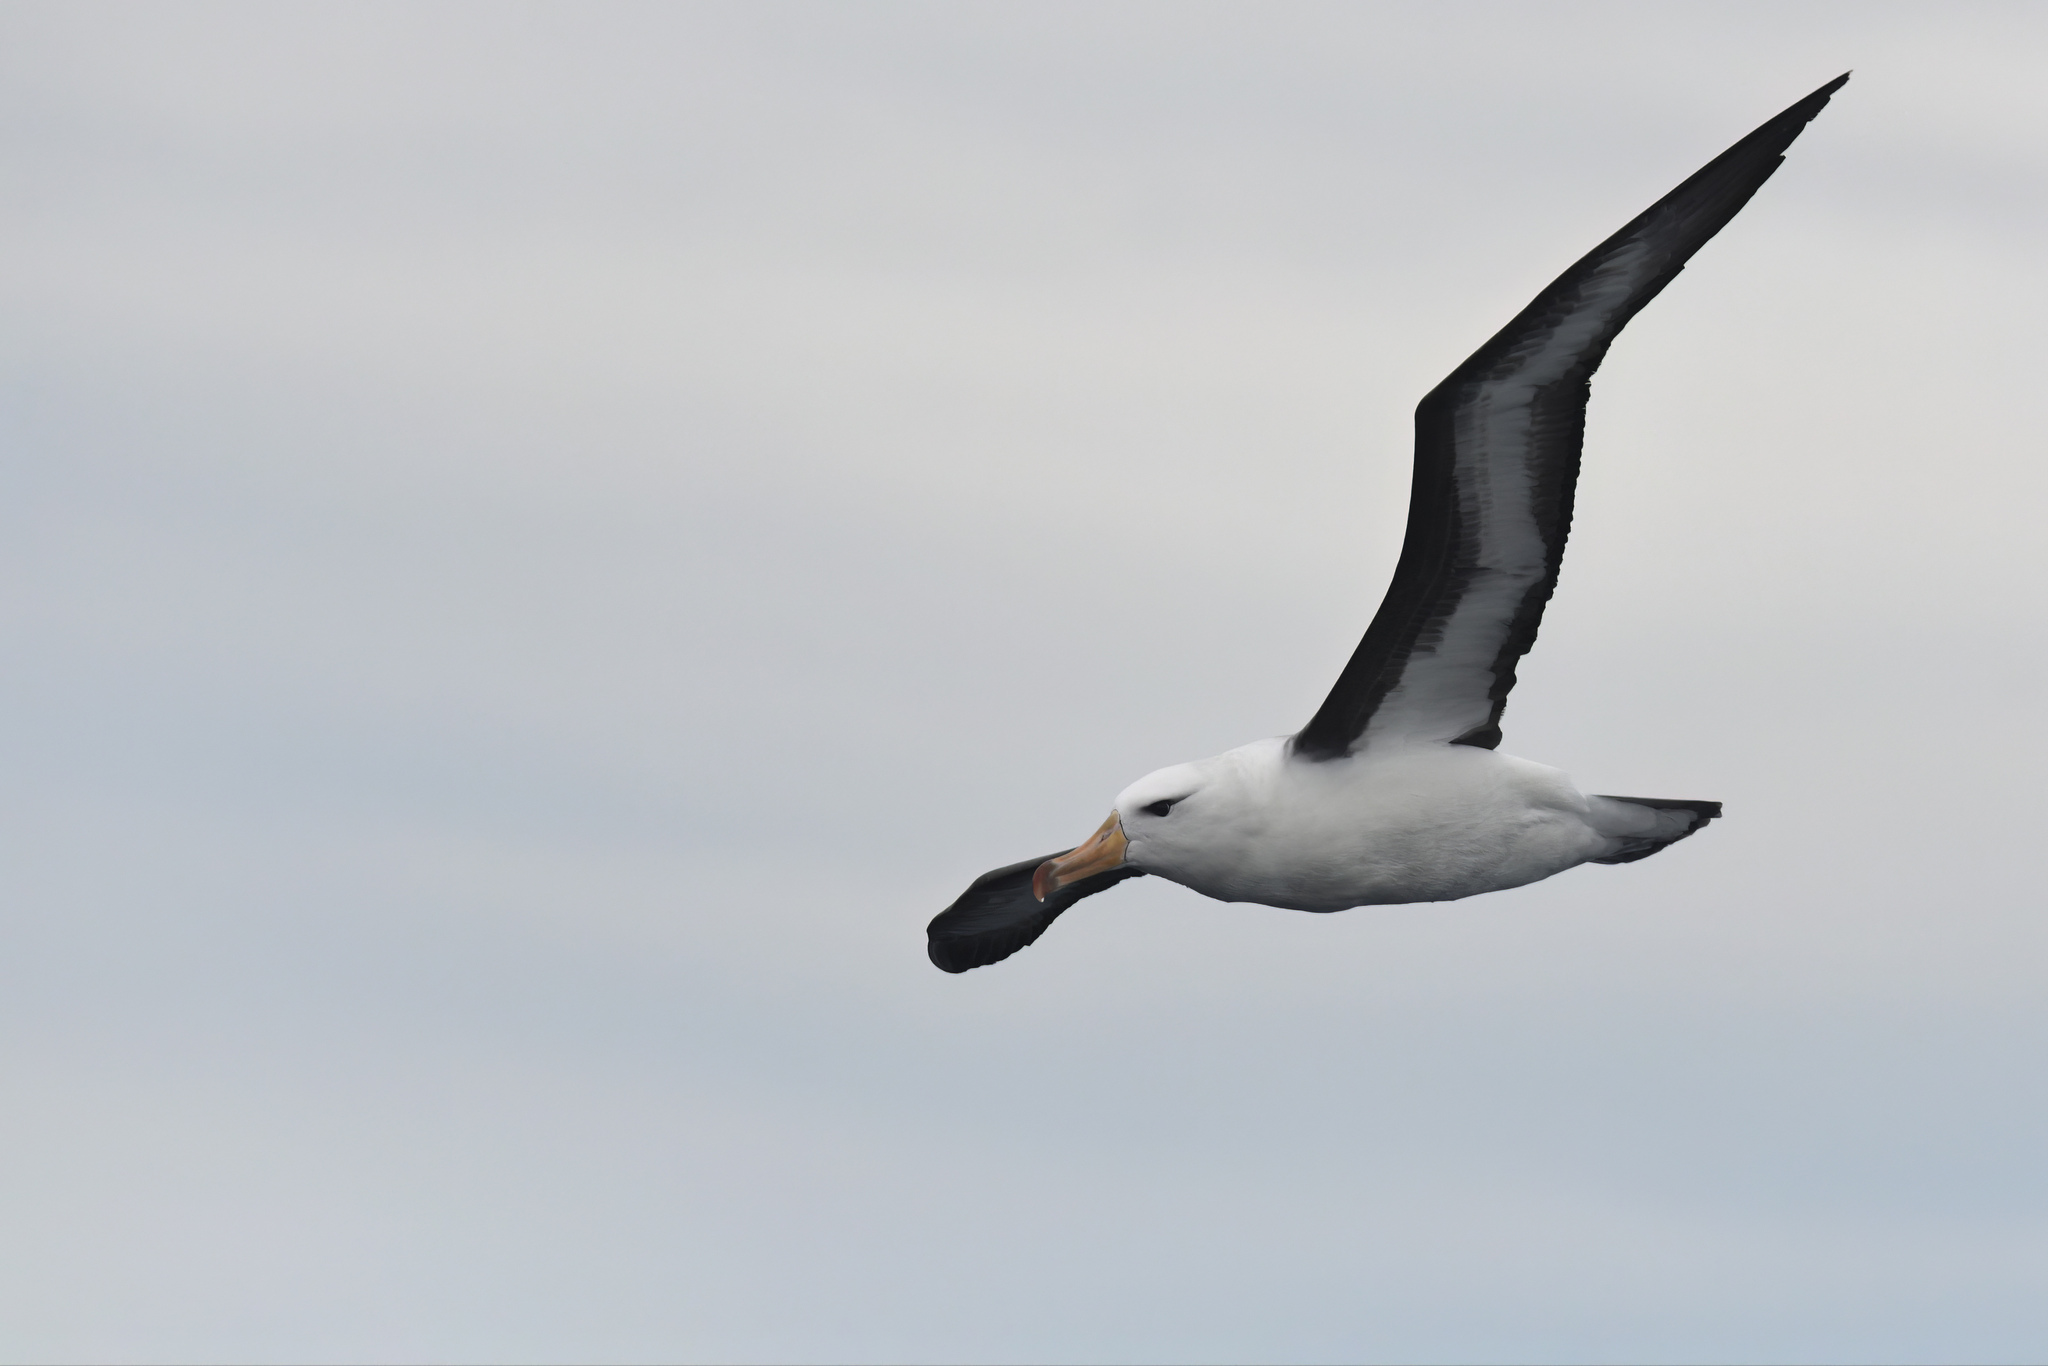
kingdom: Animalia
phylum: Chordata
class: Aves
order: Procellariiformes
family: Diomedeidae
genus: Thalassarche
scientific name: Thalassarche melanophris
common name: Black-browed albatross
